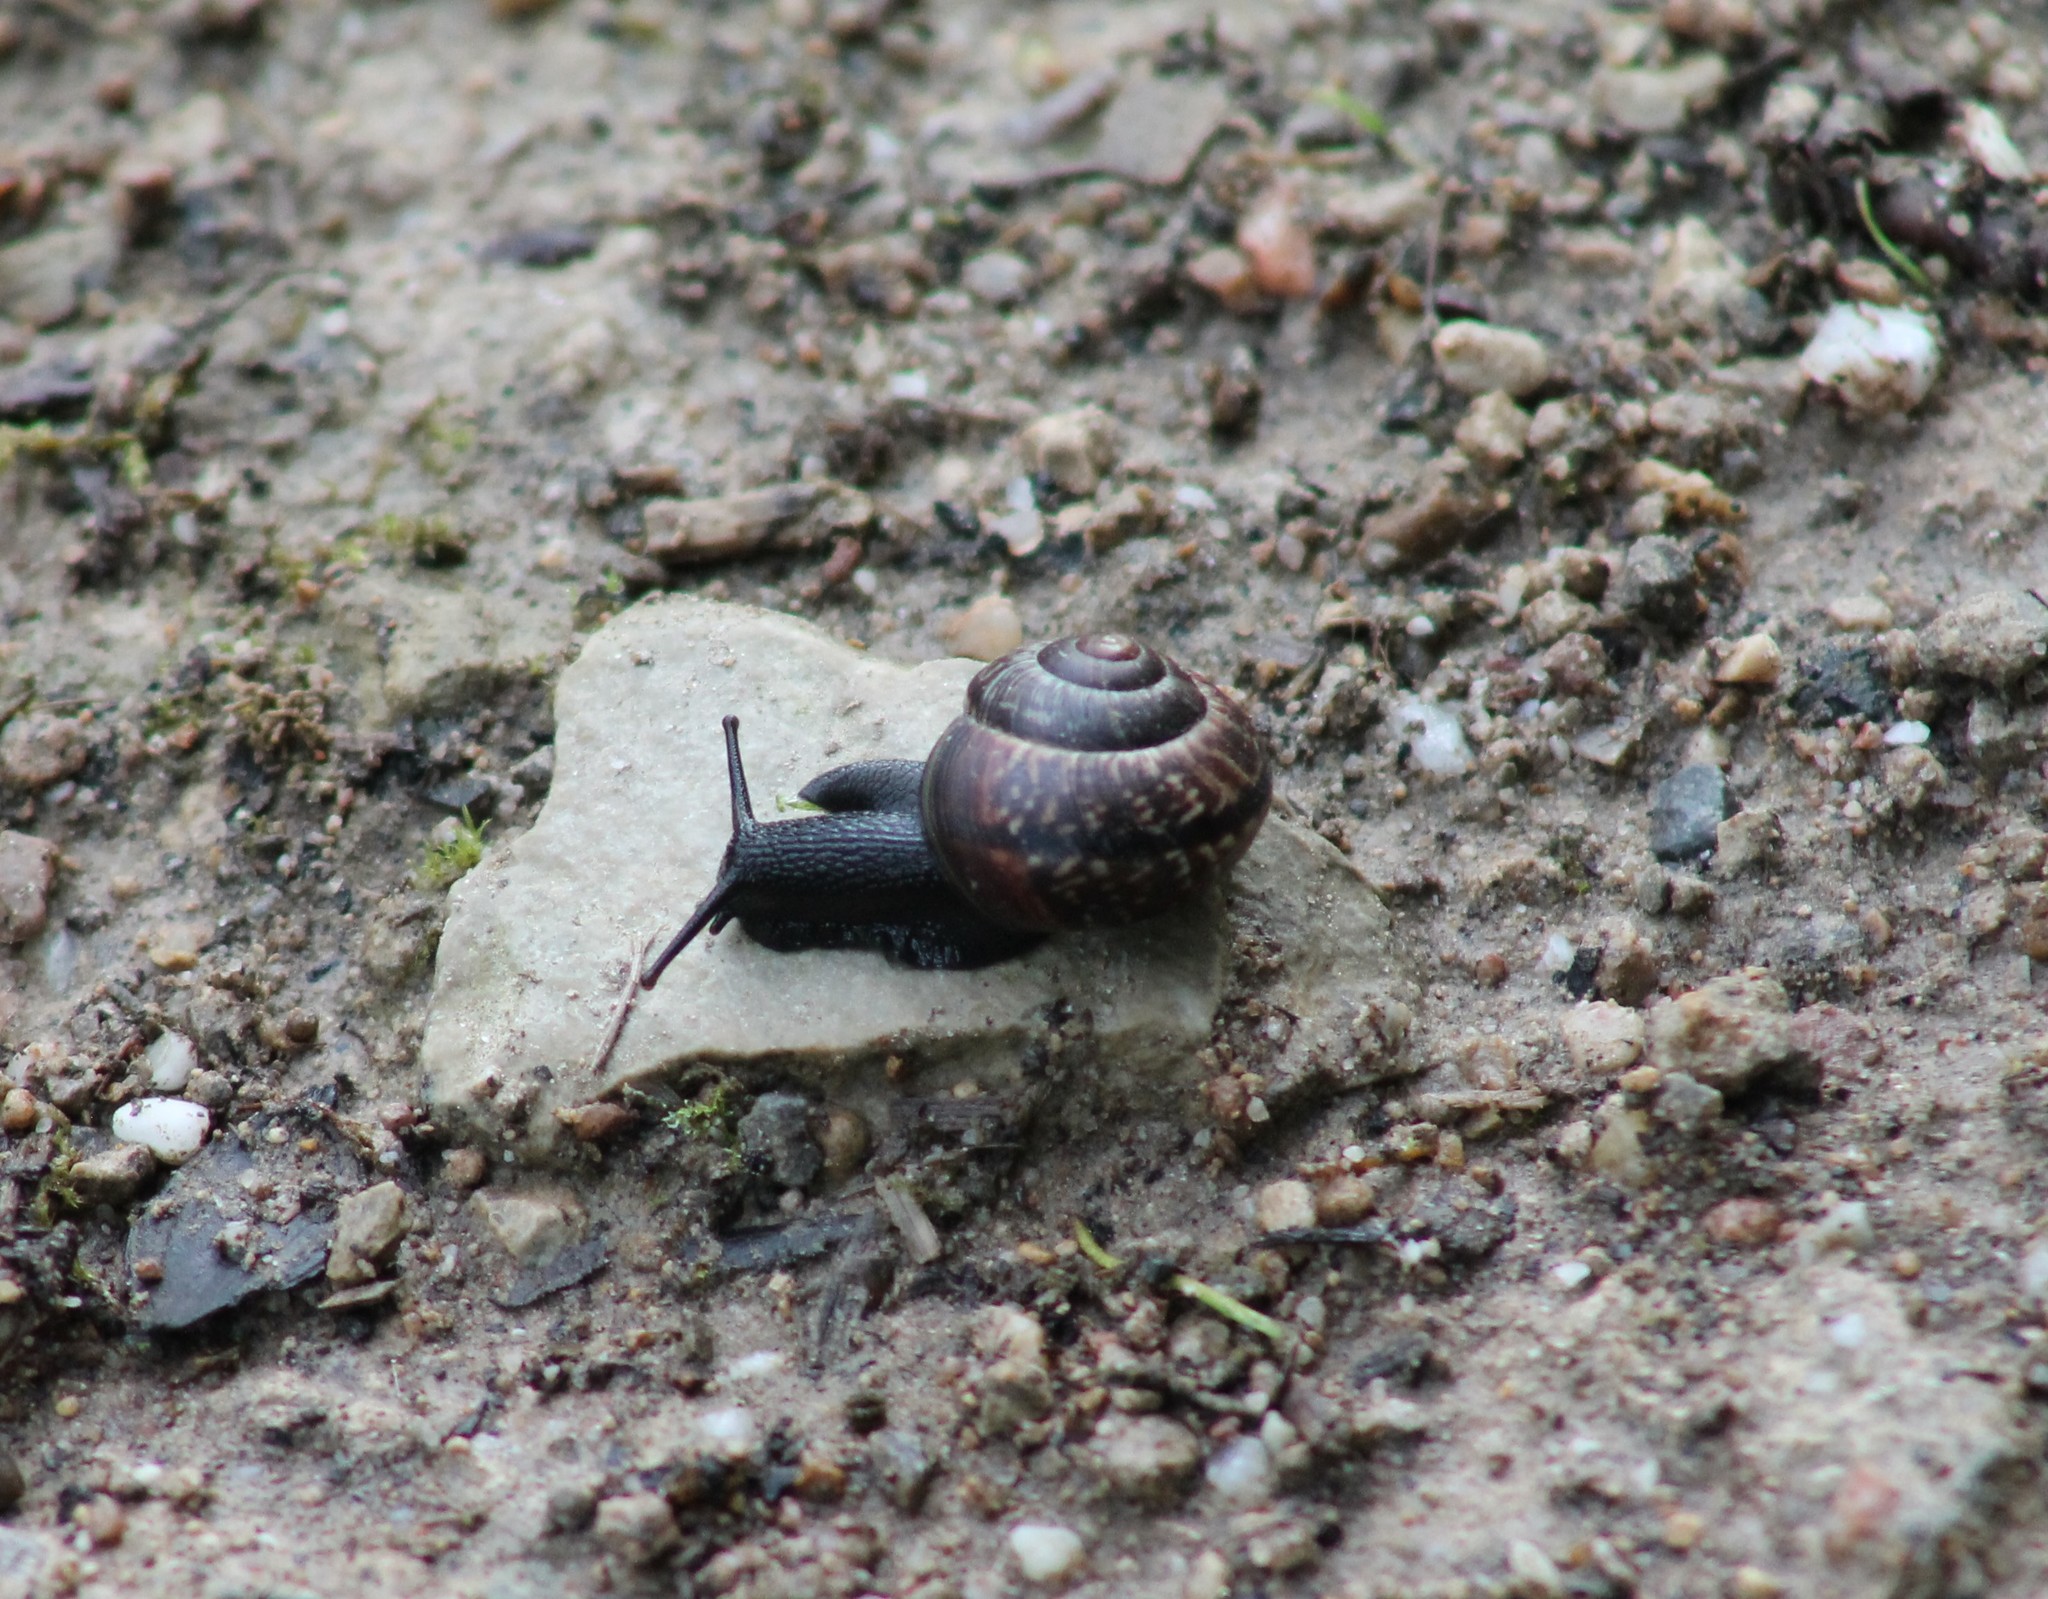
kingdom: Animalia
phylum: Mollusca
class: Gastropoda
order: Stylommatophora
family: Helicidae
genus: Arianta
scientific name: Arianta arbustorum
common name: Copse snail
